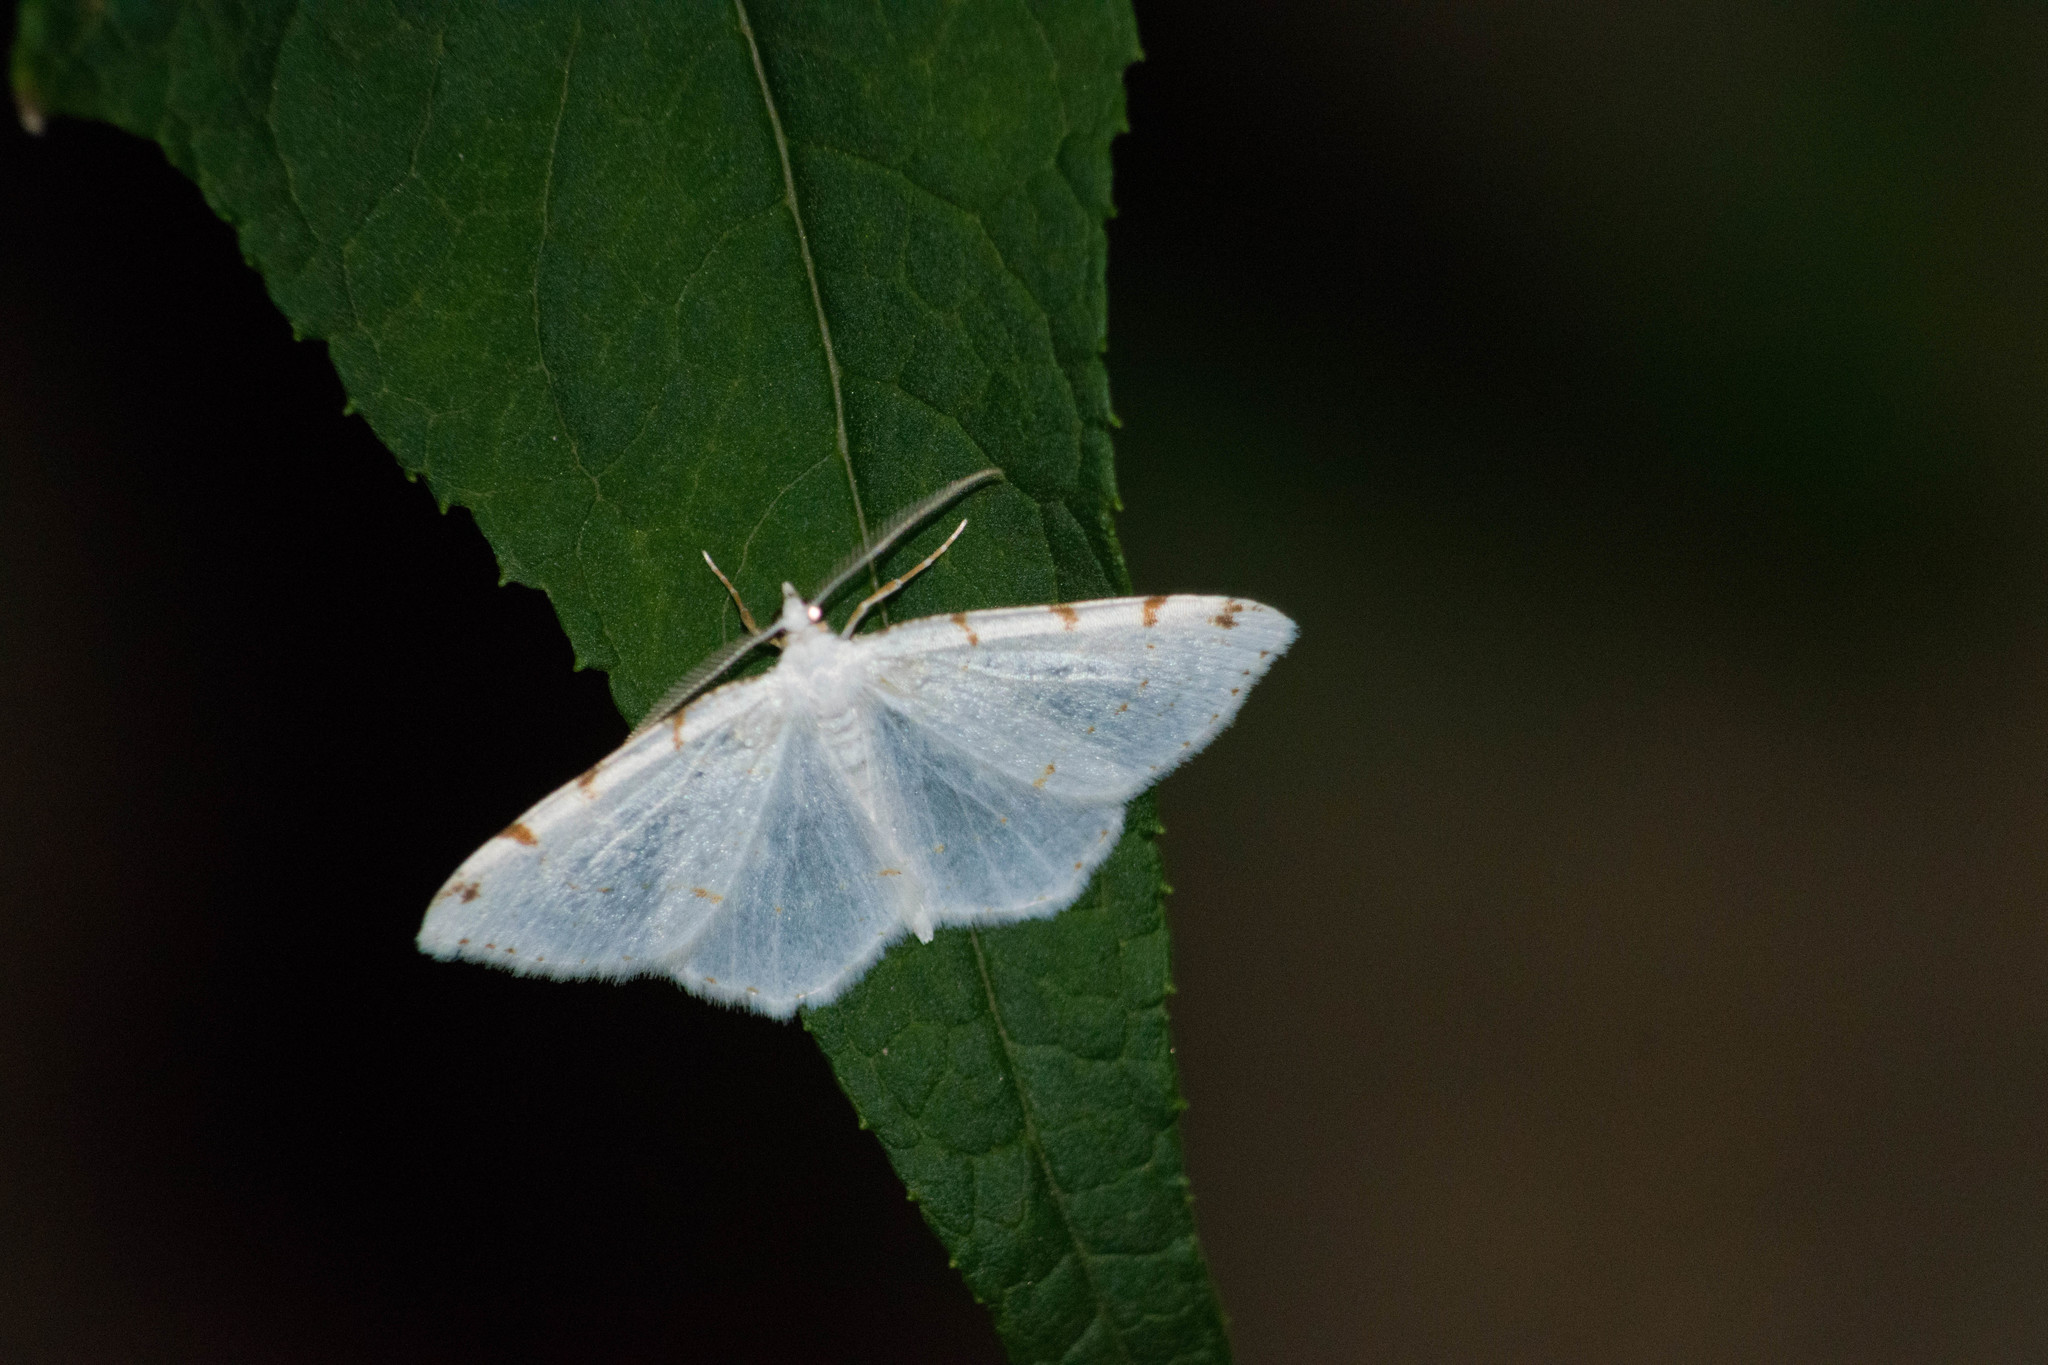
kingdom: Animalia
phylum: Arthropoda
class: Insecta
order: Lepidoptera
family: Geometridae
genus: Macaria
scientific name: Macaria pustularia
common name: Lesser maple spanworm moth
